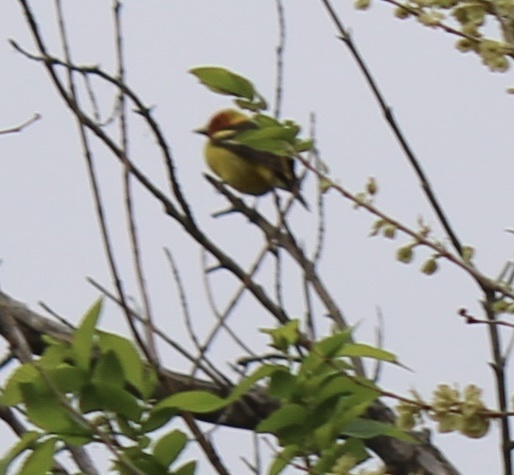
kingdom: Animalia
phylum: Chordata
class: Aves
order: Passeriformes
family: Cardinalidae
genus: Piranga
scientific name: Piranga ludoviciana
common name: Western tanager
